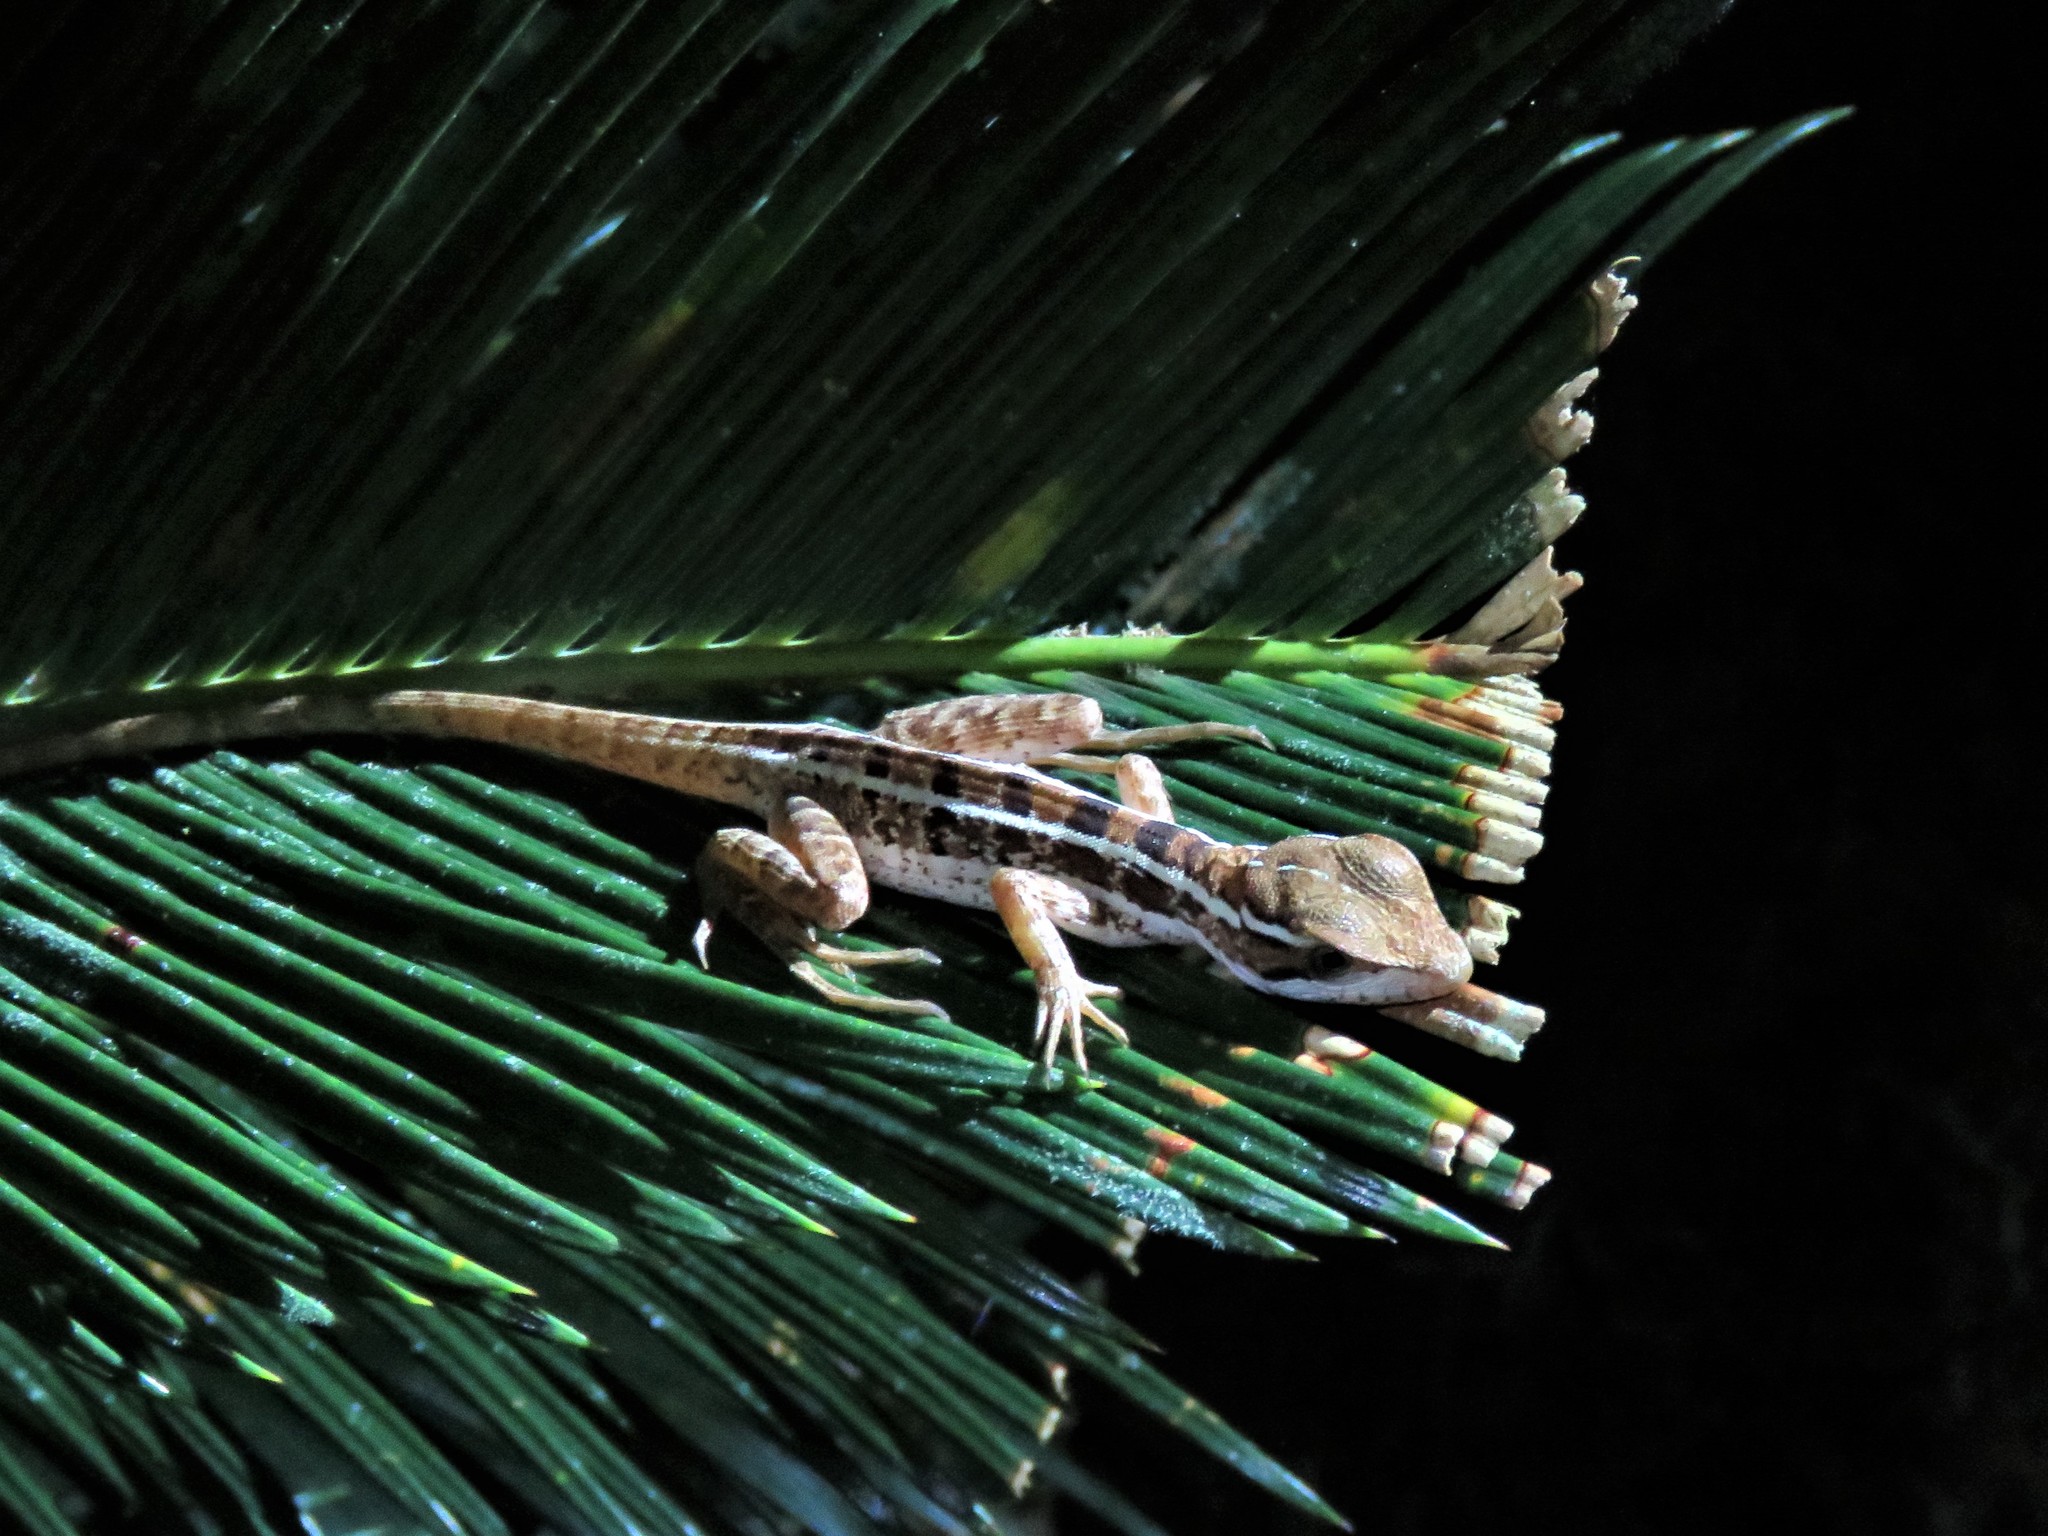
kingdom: Animalia
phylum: Chordata
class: Squamata
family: Corytophanidae
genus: Basiliscus
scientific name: Basiliscus vittatus
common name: Brown basilisk
